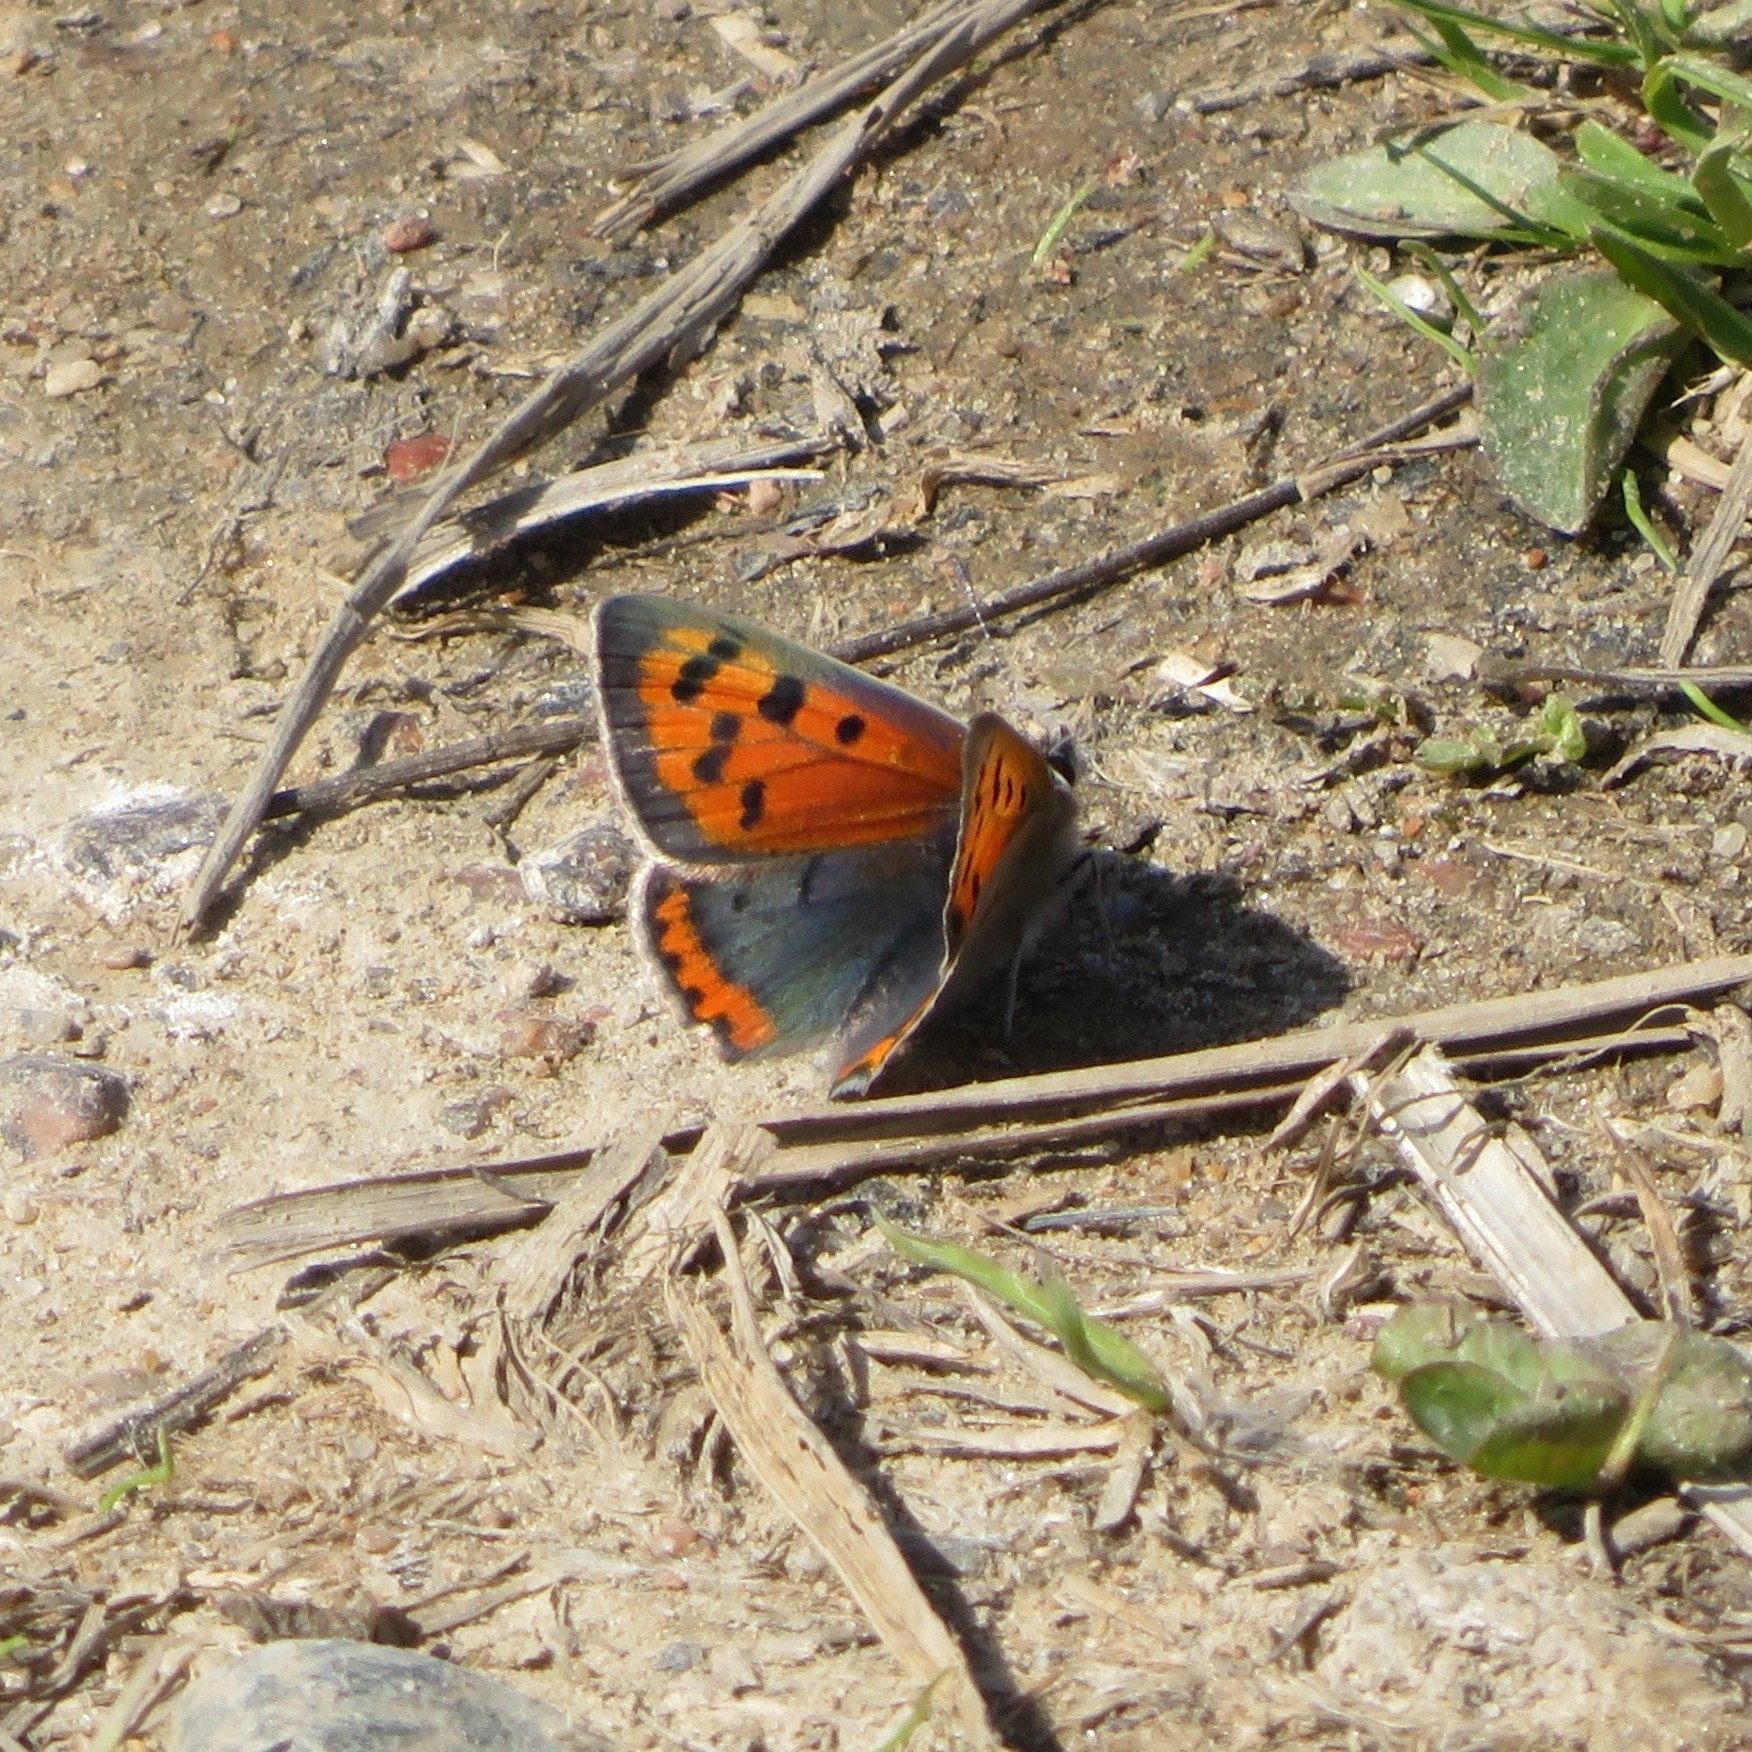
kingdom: Animalia
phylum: Arthropoda
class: Insecta
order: Lepidoptera
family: Lycaenidae
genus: Lycaena
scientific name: Lycaena phlaeas
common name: Small copper
